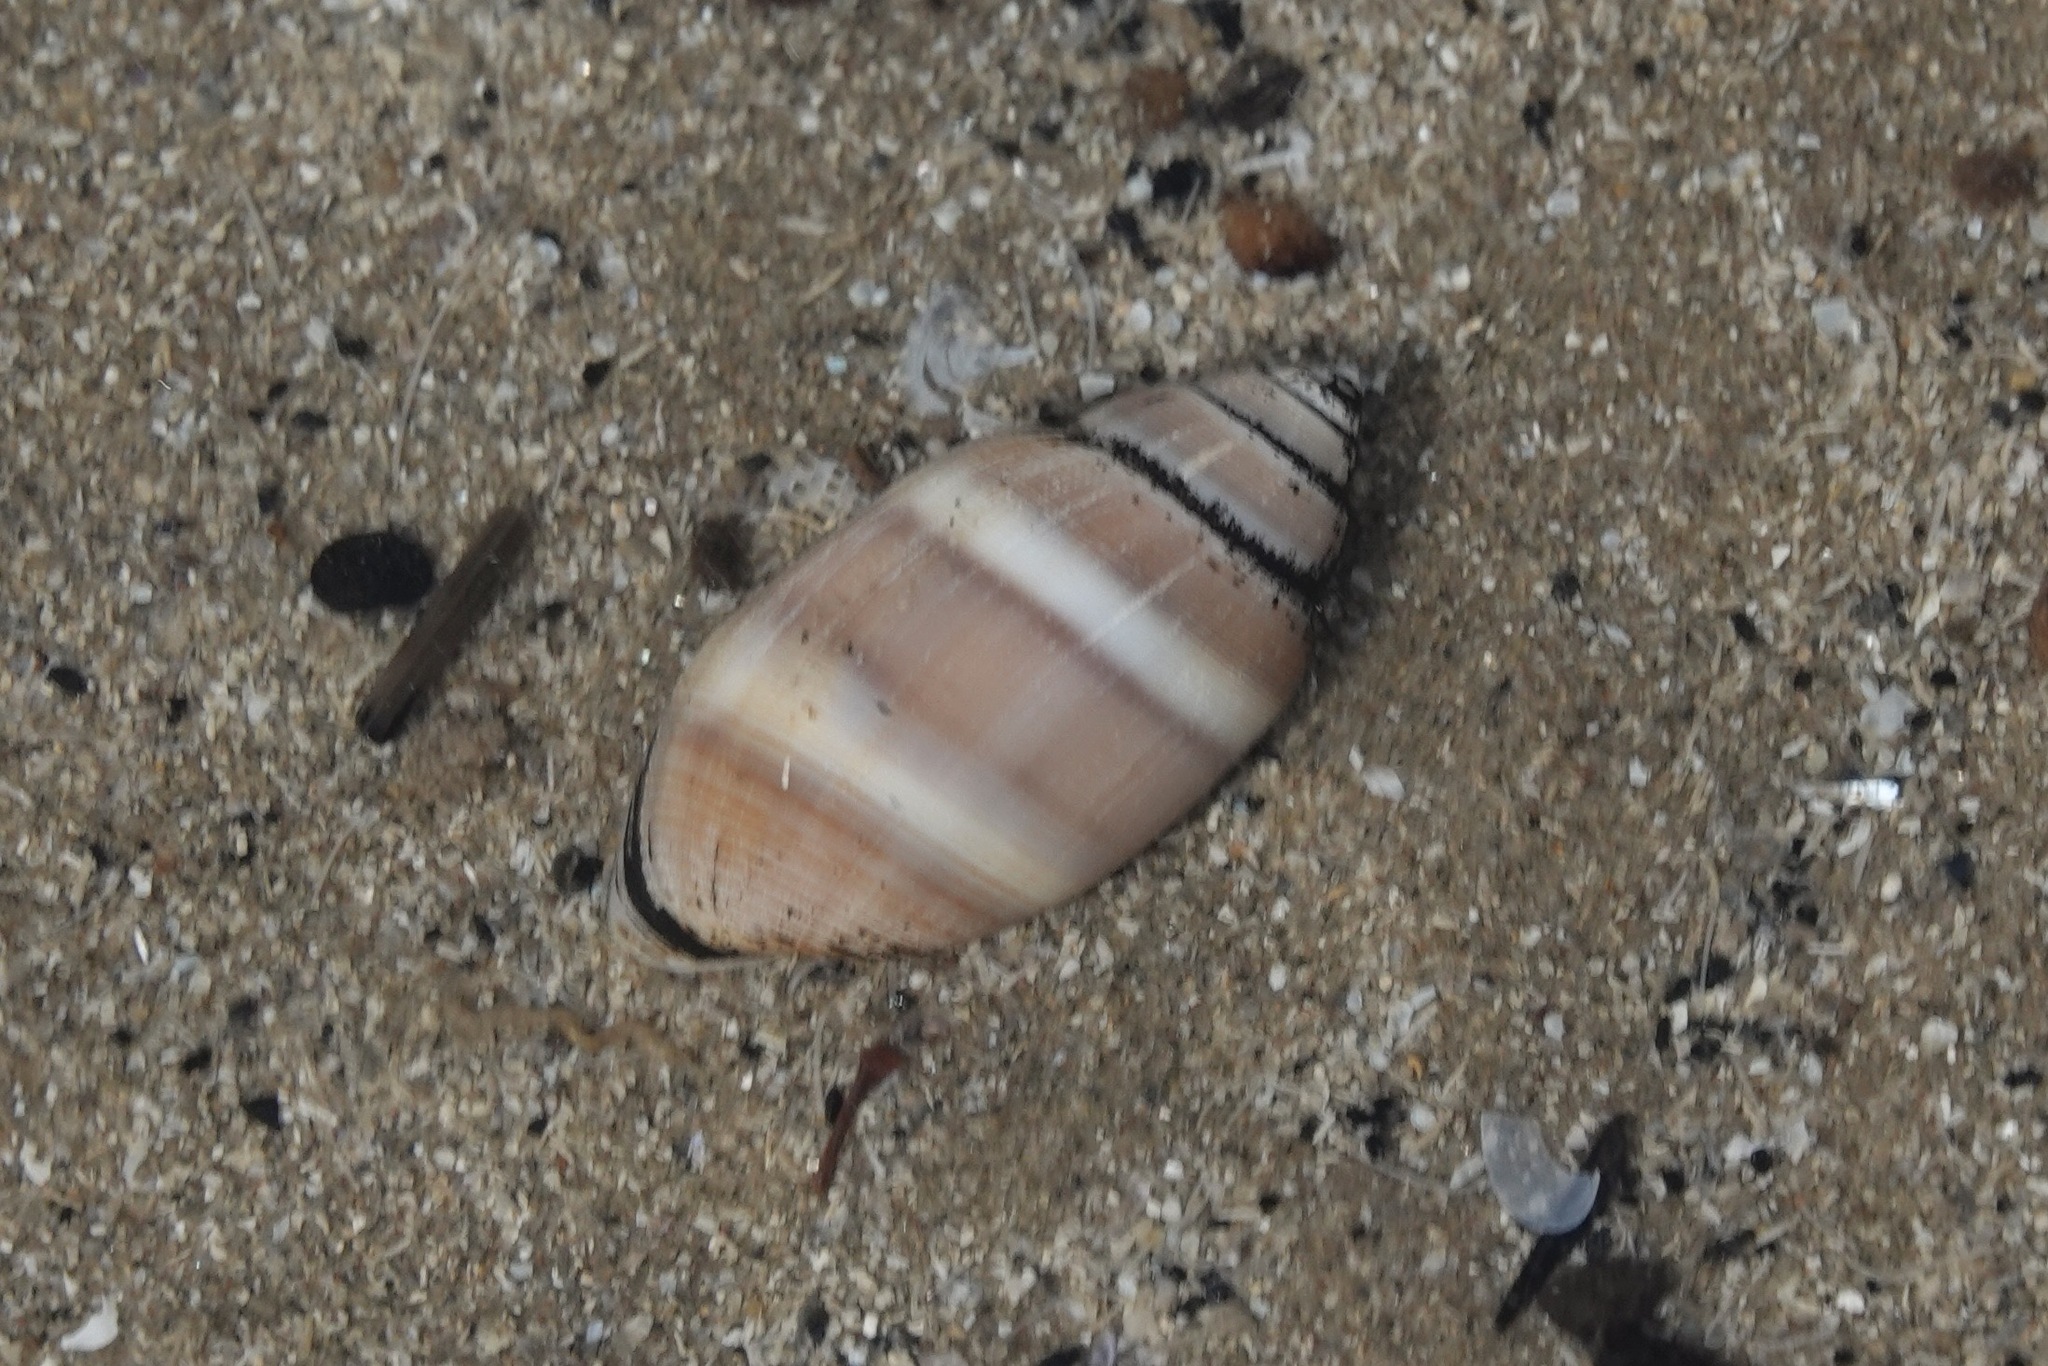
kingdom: Animalia
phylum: Mollusca
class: Gastropoda
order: Cephalaspidea
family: Acteonidae
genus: Acteon
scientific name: Acteon tornatilis
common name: European acteon
